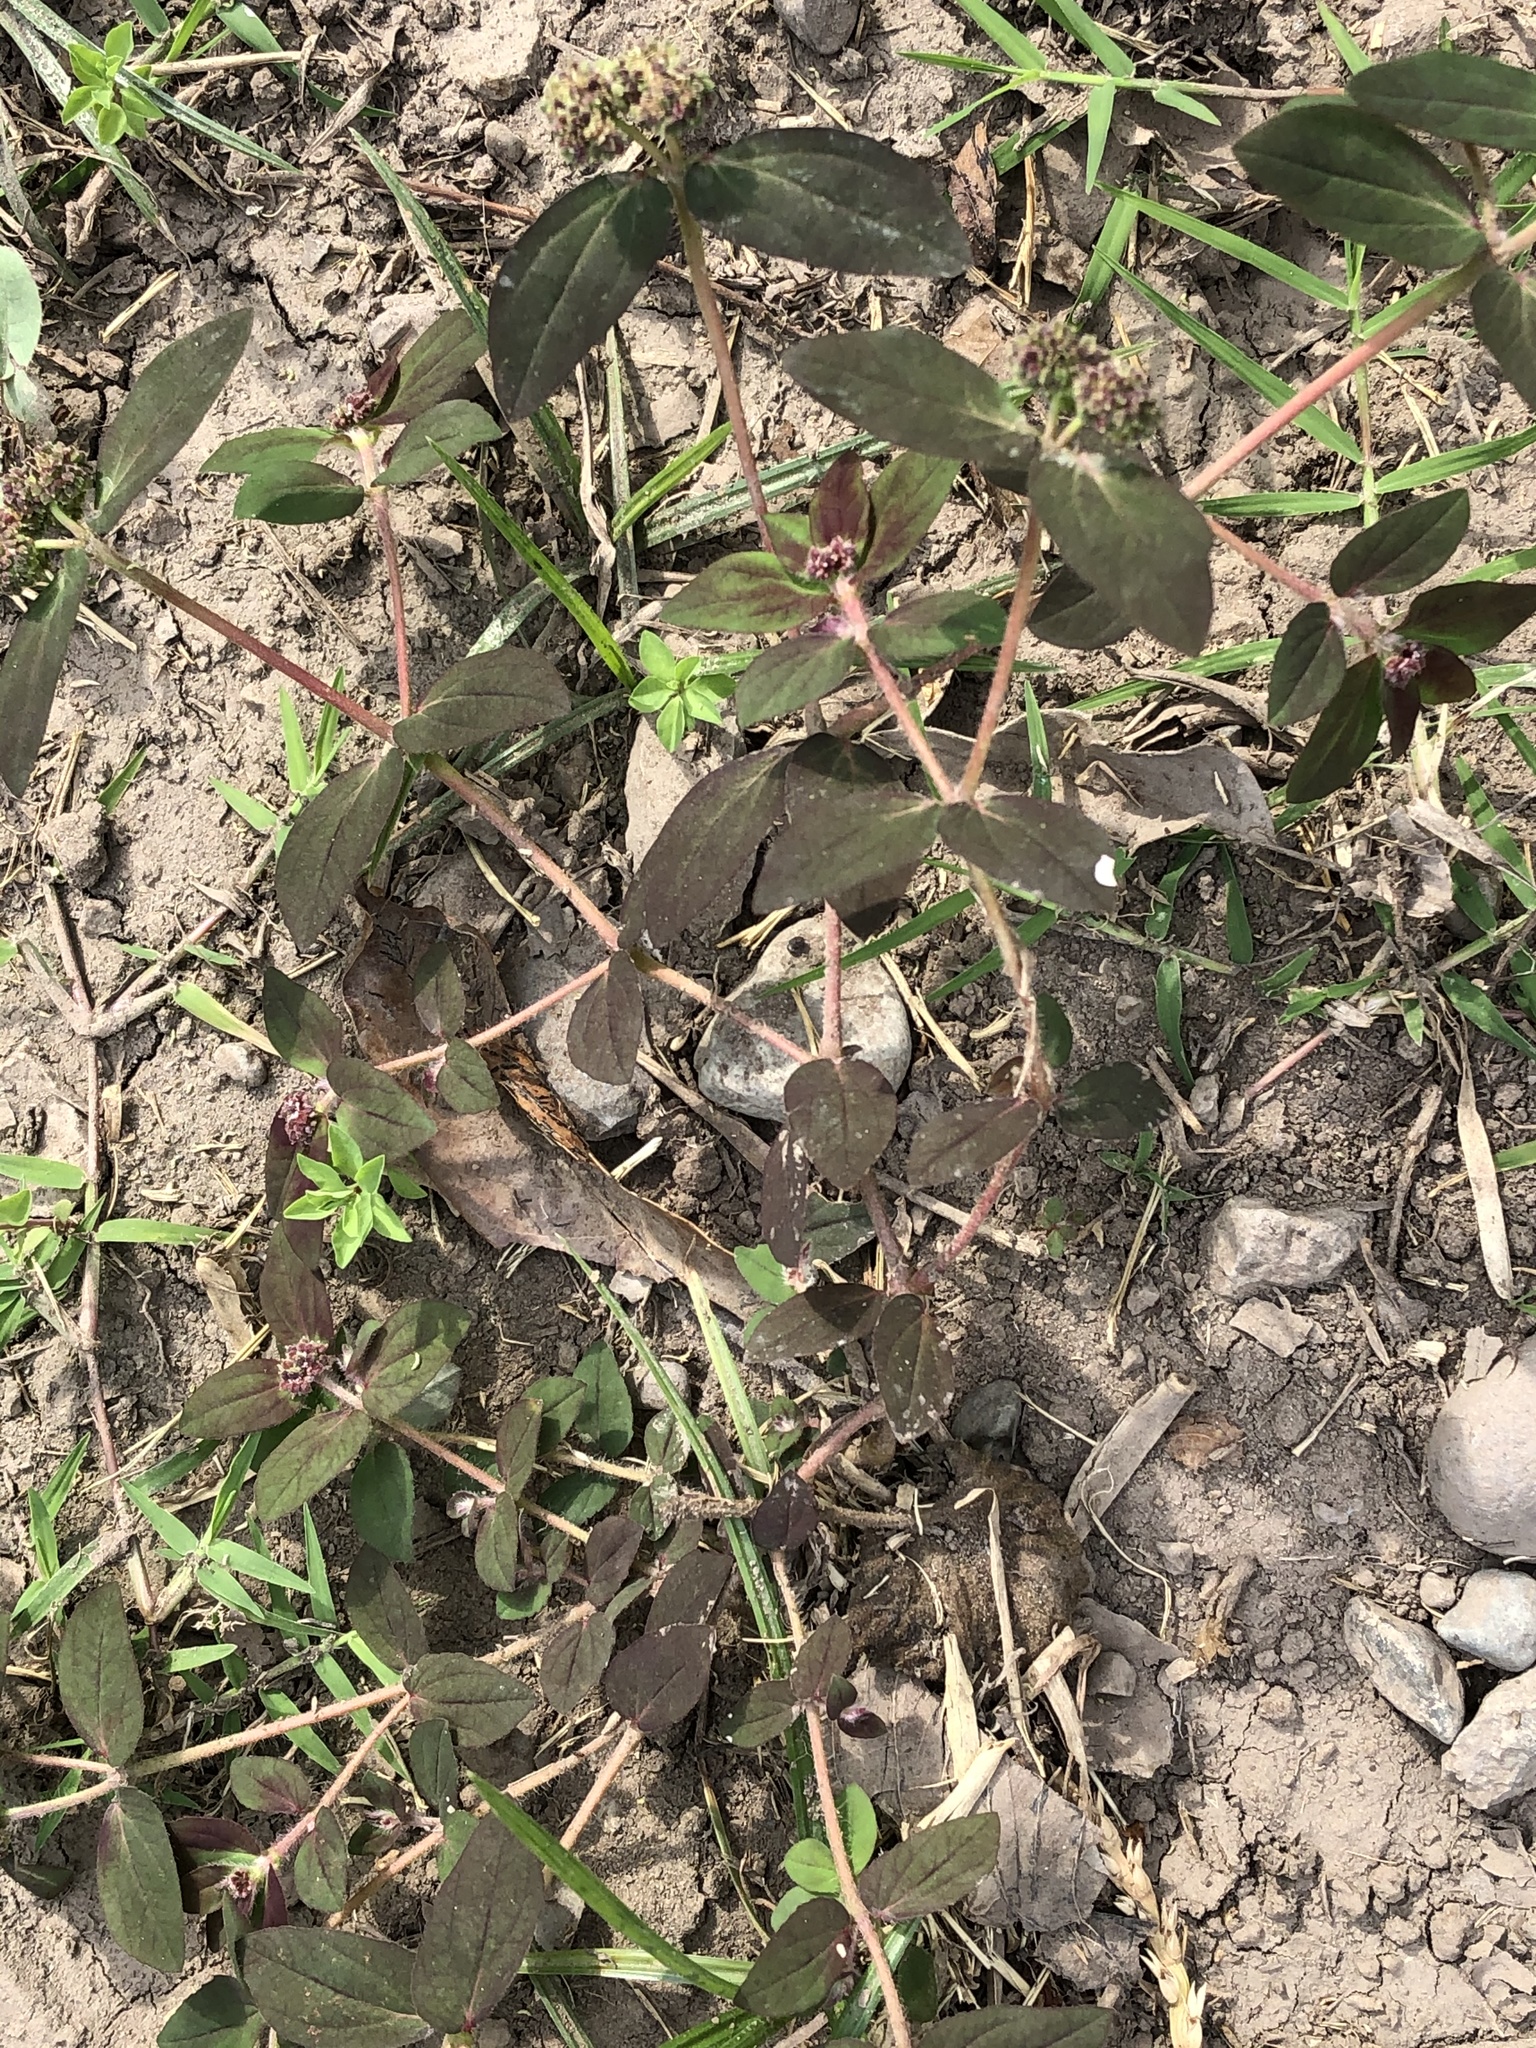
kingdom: Plantae
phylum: Tracheophyta
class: Magnoliopsida
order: Malpighiales
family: Euphorbiaceae
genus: Euphorbia
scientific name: Euphorbia ophthalmica
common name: Florida hammock sandmat
